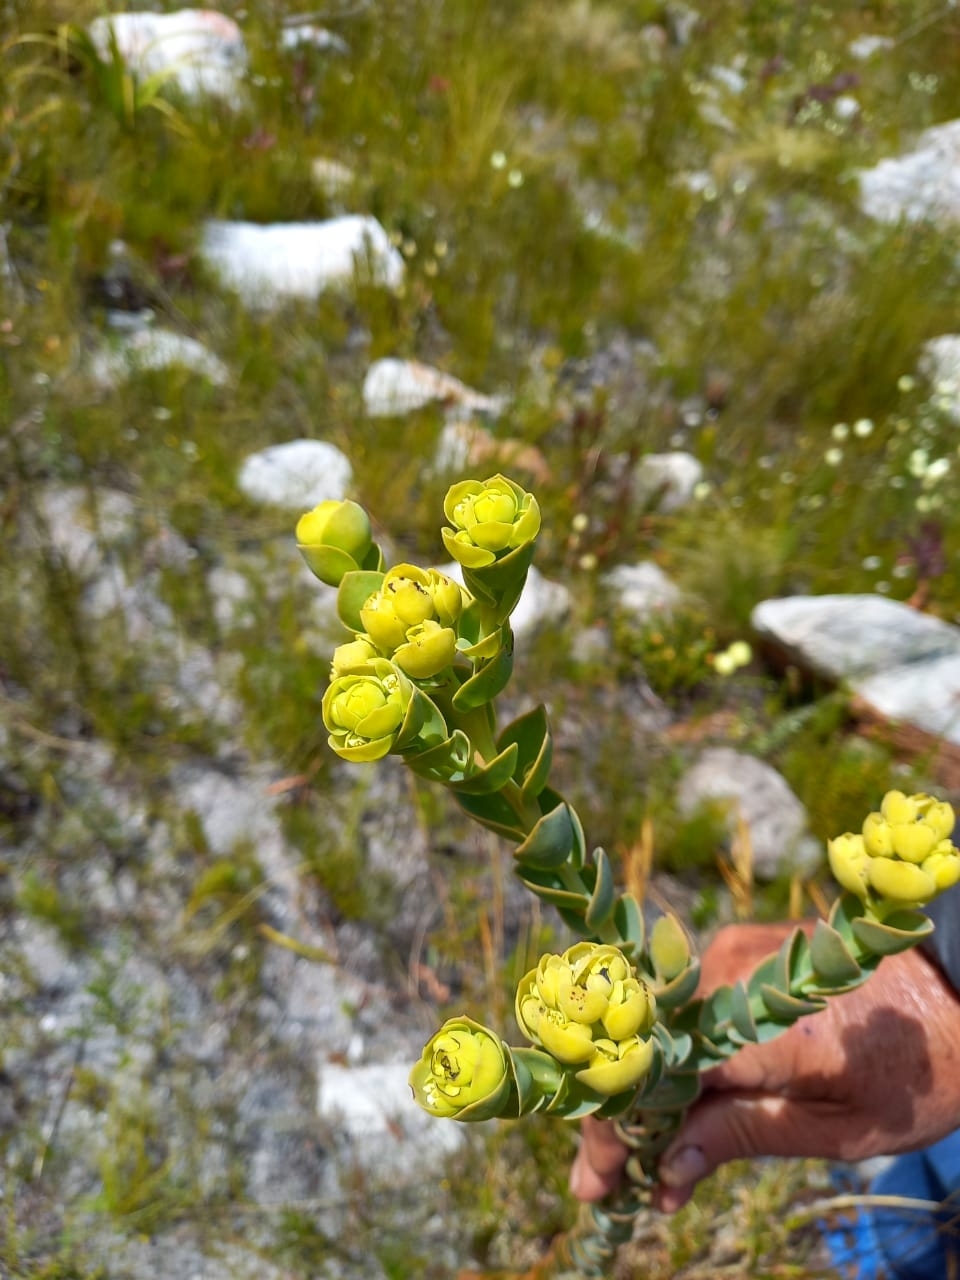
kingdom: Plantae
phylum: Tracheophyta
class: Magnoliopsida
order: Santalales
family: Thesiaceae
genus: Thesium
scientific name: Thesium euphorbioides
